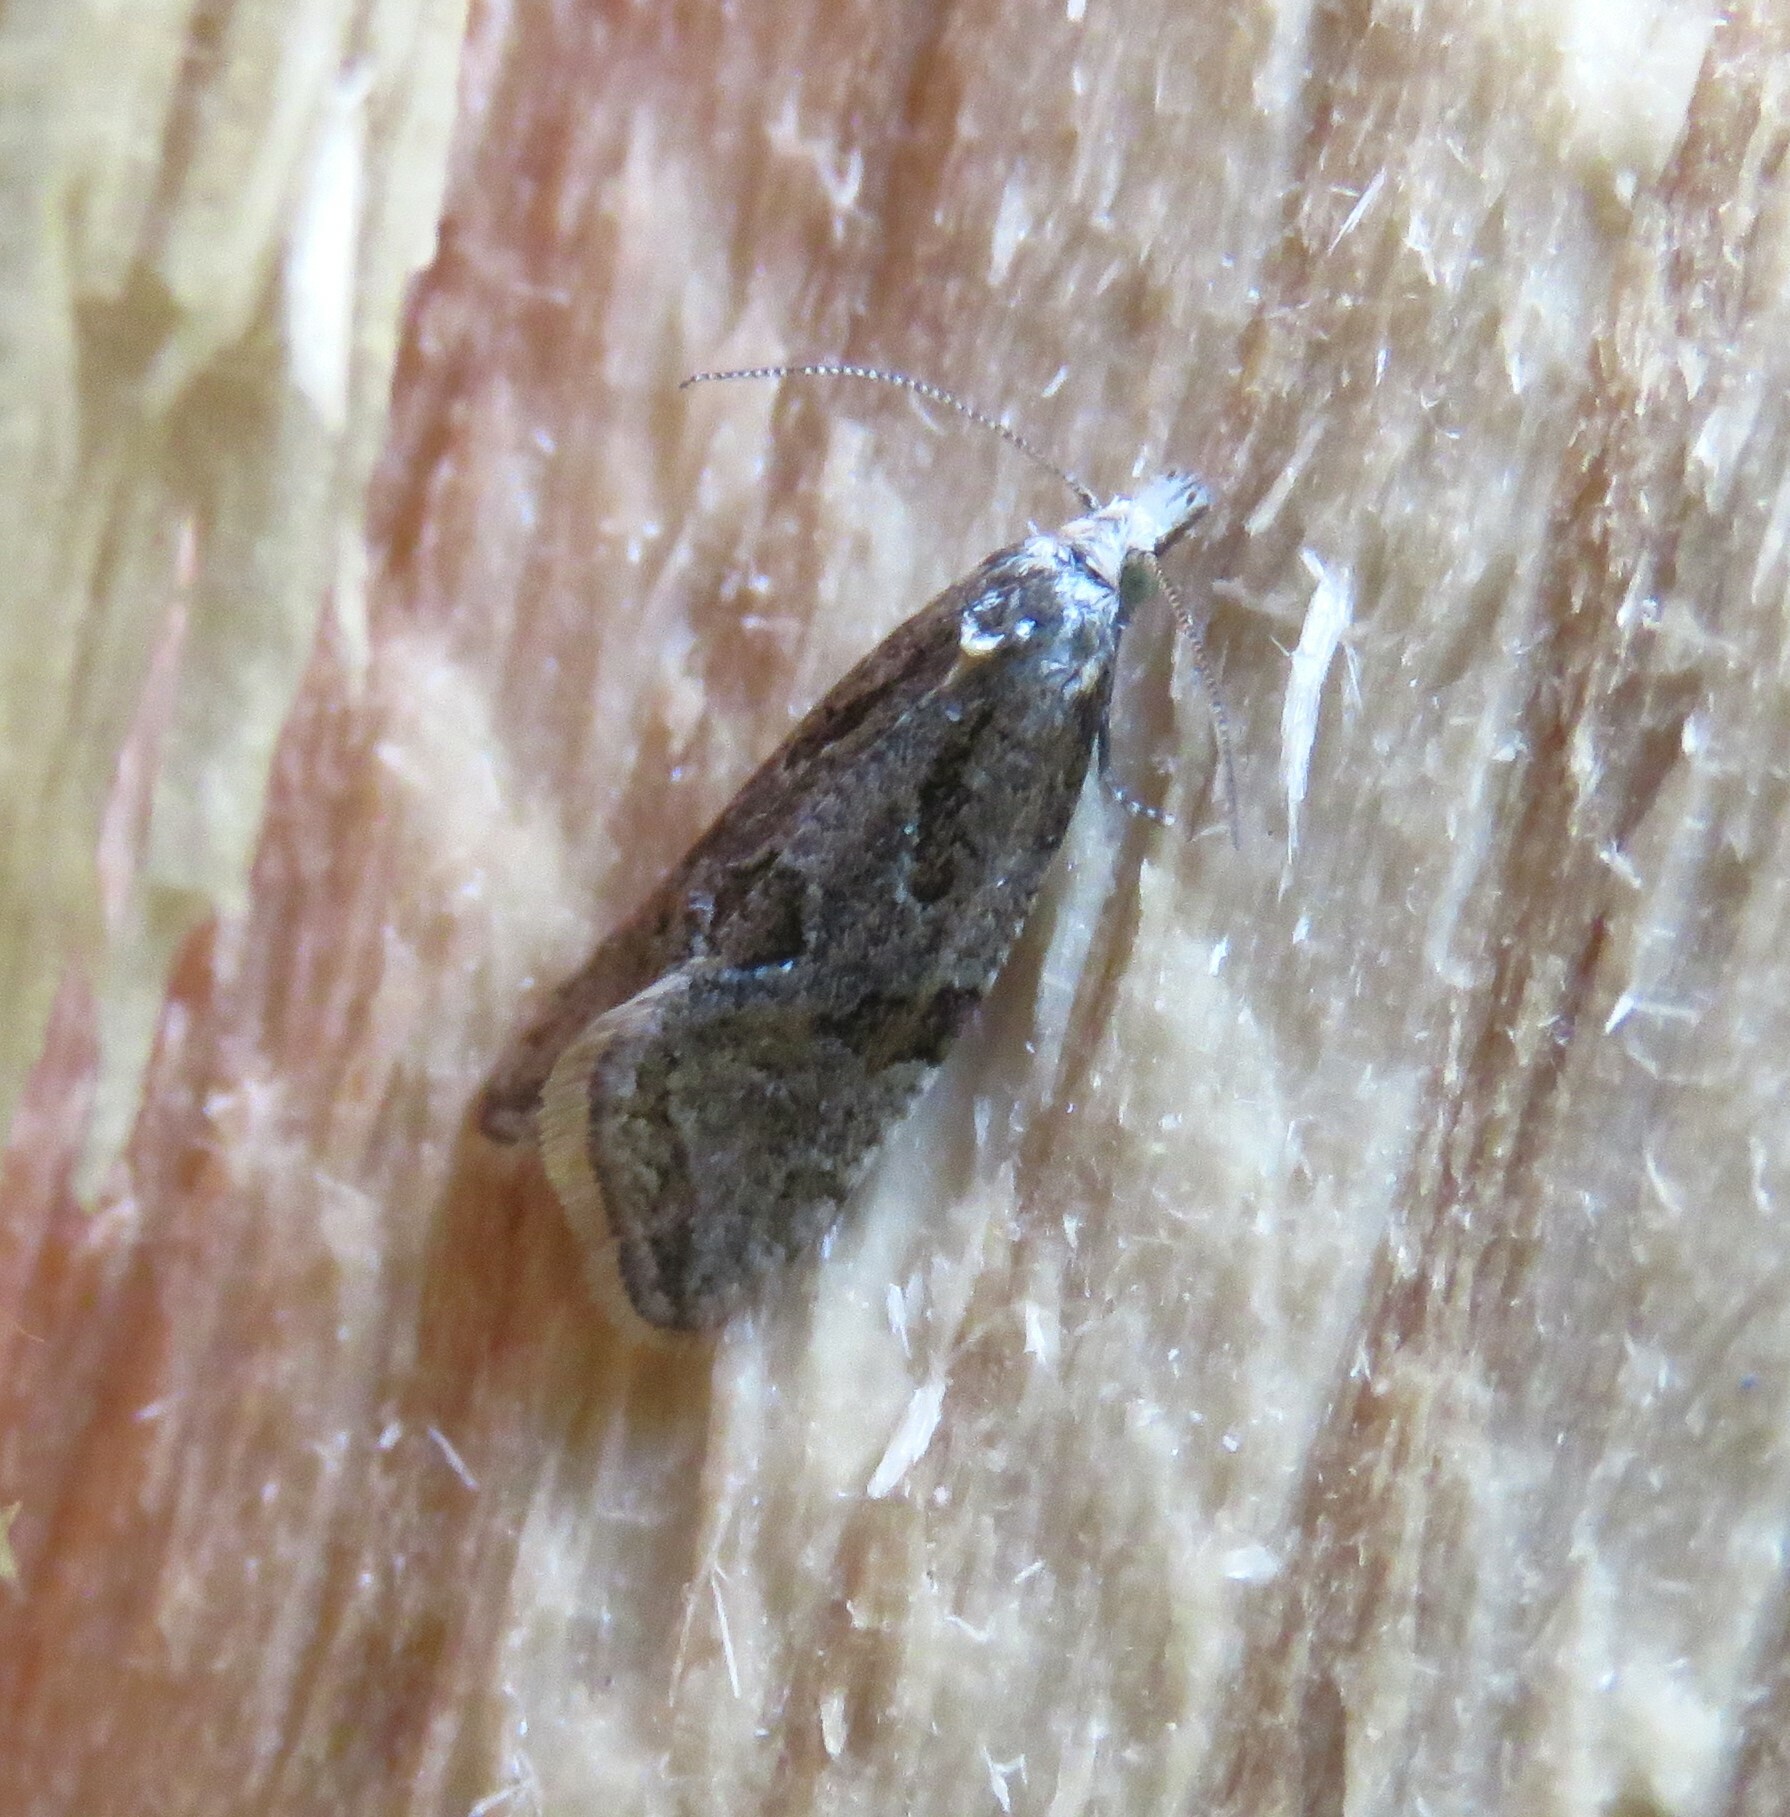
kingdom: Animalia
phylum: Arthropoda
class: Insecta
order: Lepidoptera
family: Tortricidae
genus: Aethes
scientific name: Aethes sexdentata
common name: Six-toothed aethes
